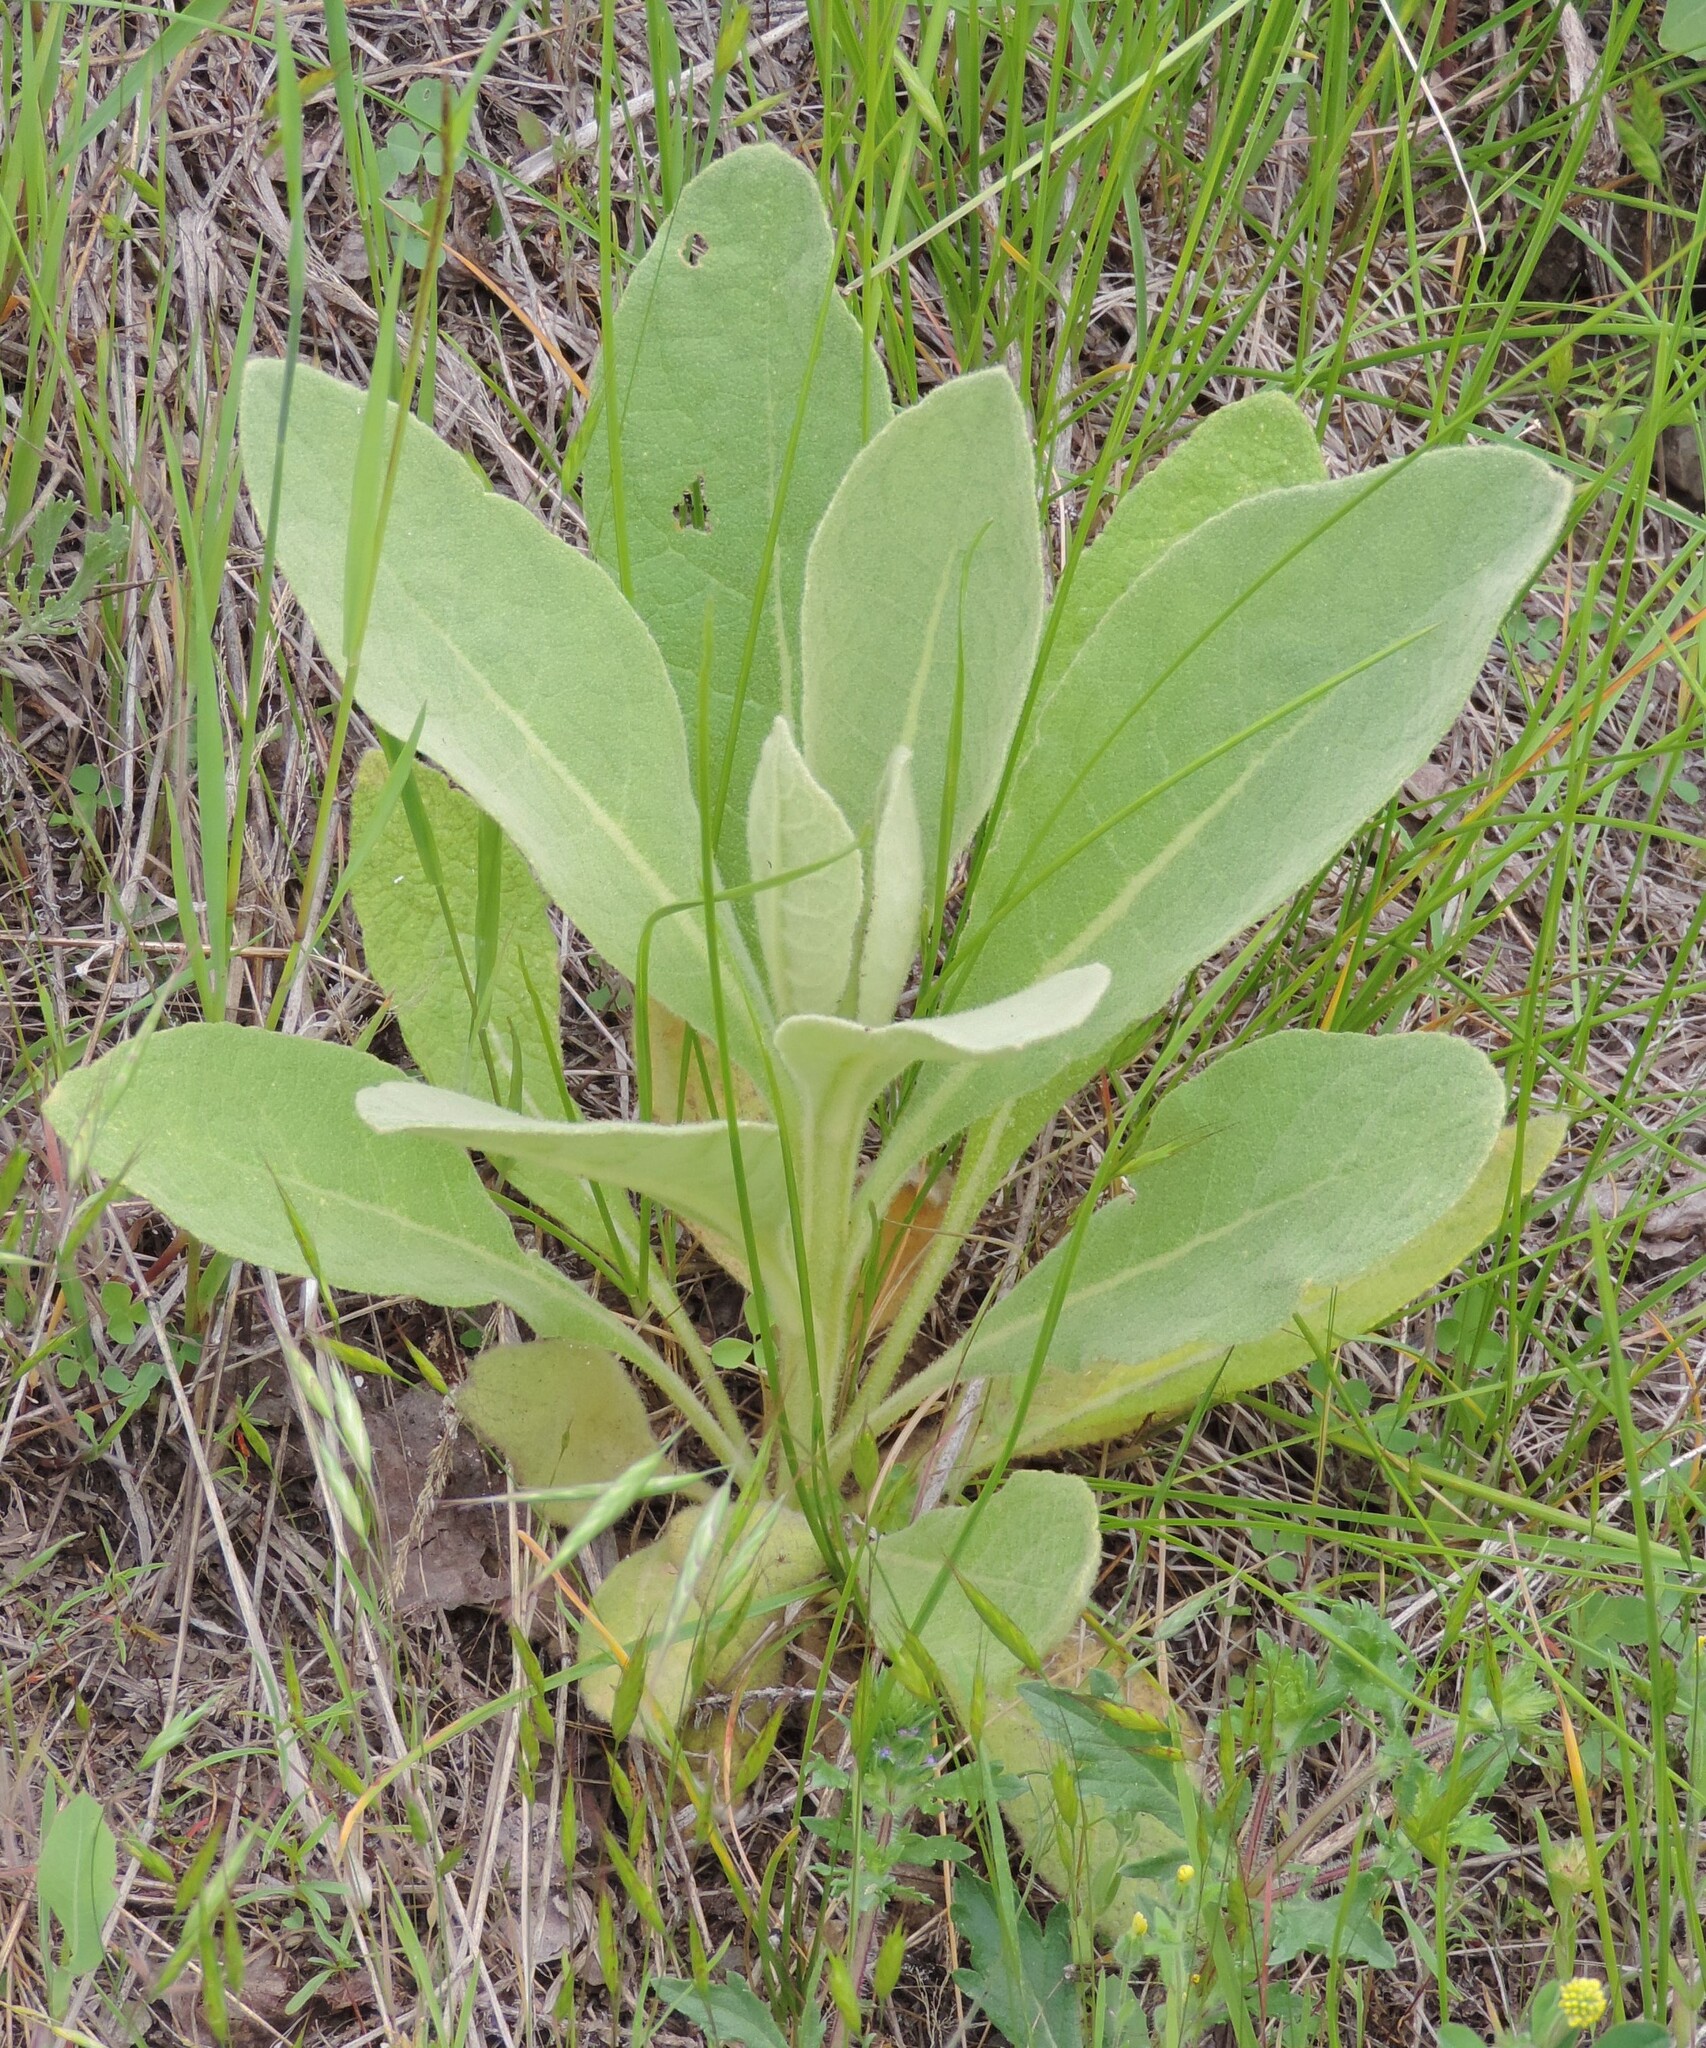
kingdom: Plantae
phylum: Tracheophyta
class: Magnoliopsida
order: Lamiales
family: Scrophulariaceae
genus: Verbascum
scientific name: Verbascum thapsus
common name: Common mullein
